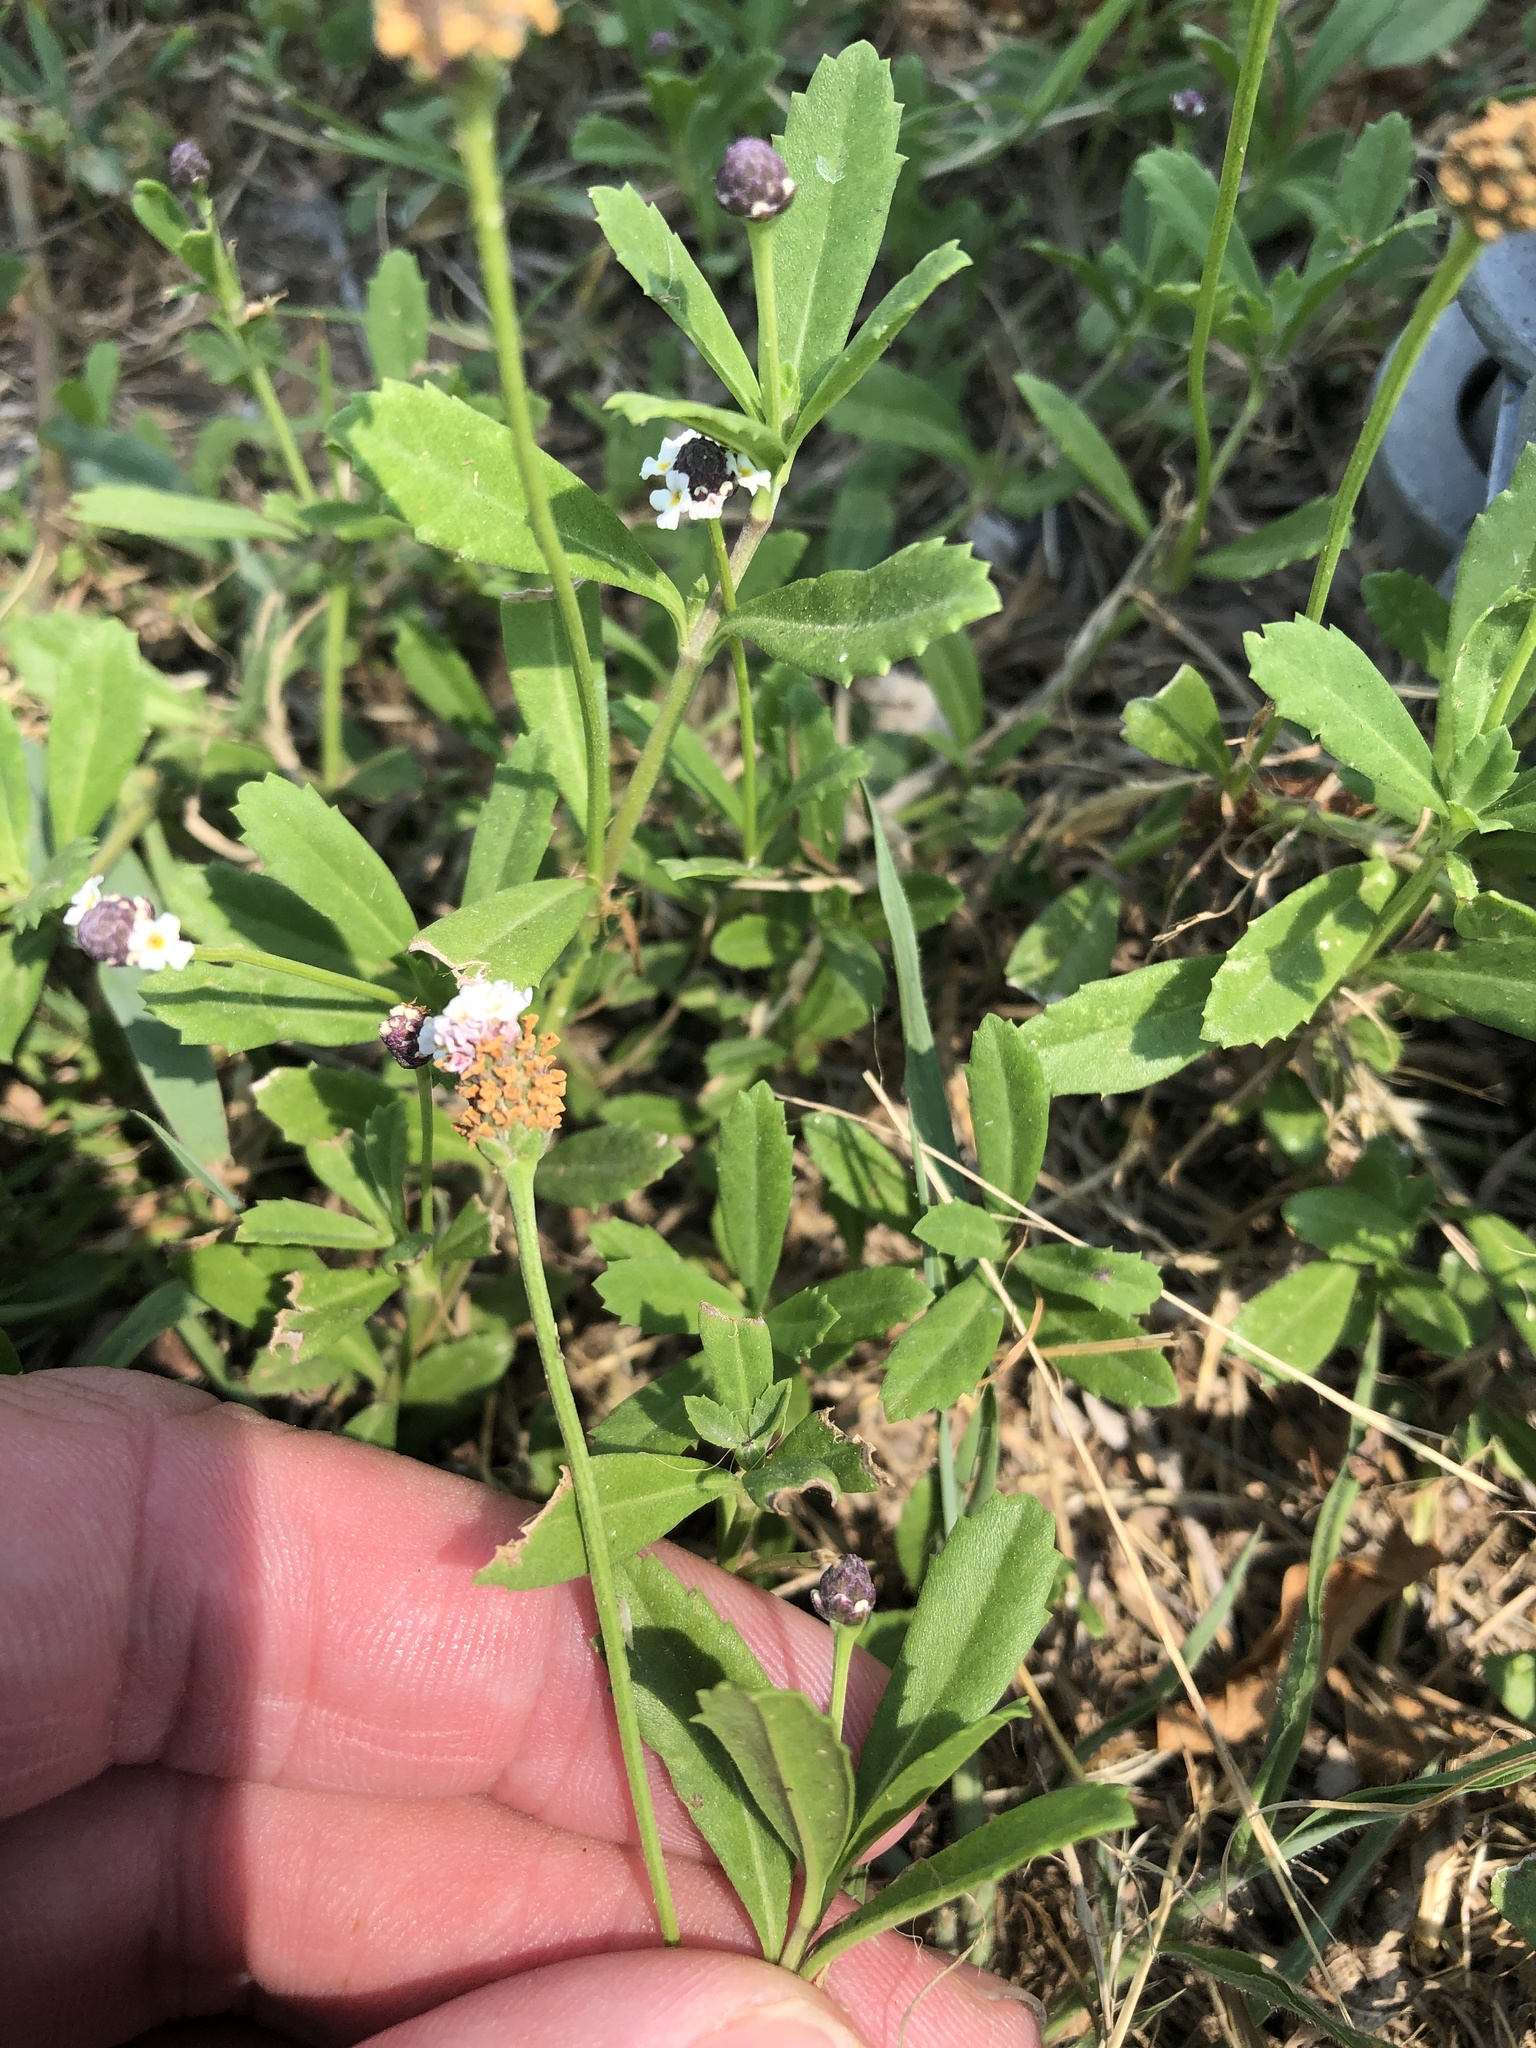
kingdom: Plantae
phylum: Tracheophyta
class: Magnoliopsida
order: Lamiales
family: Verbenaceae
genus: Phyla
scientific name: Phyla nodiflora
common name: Frogfruit
